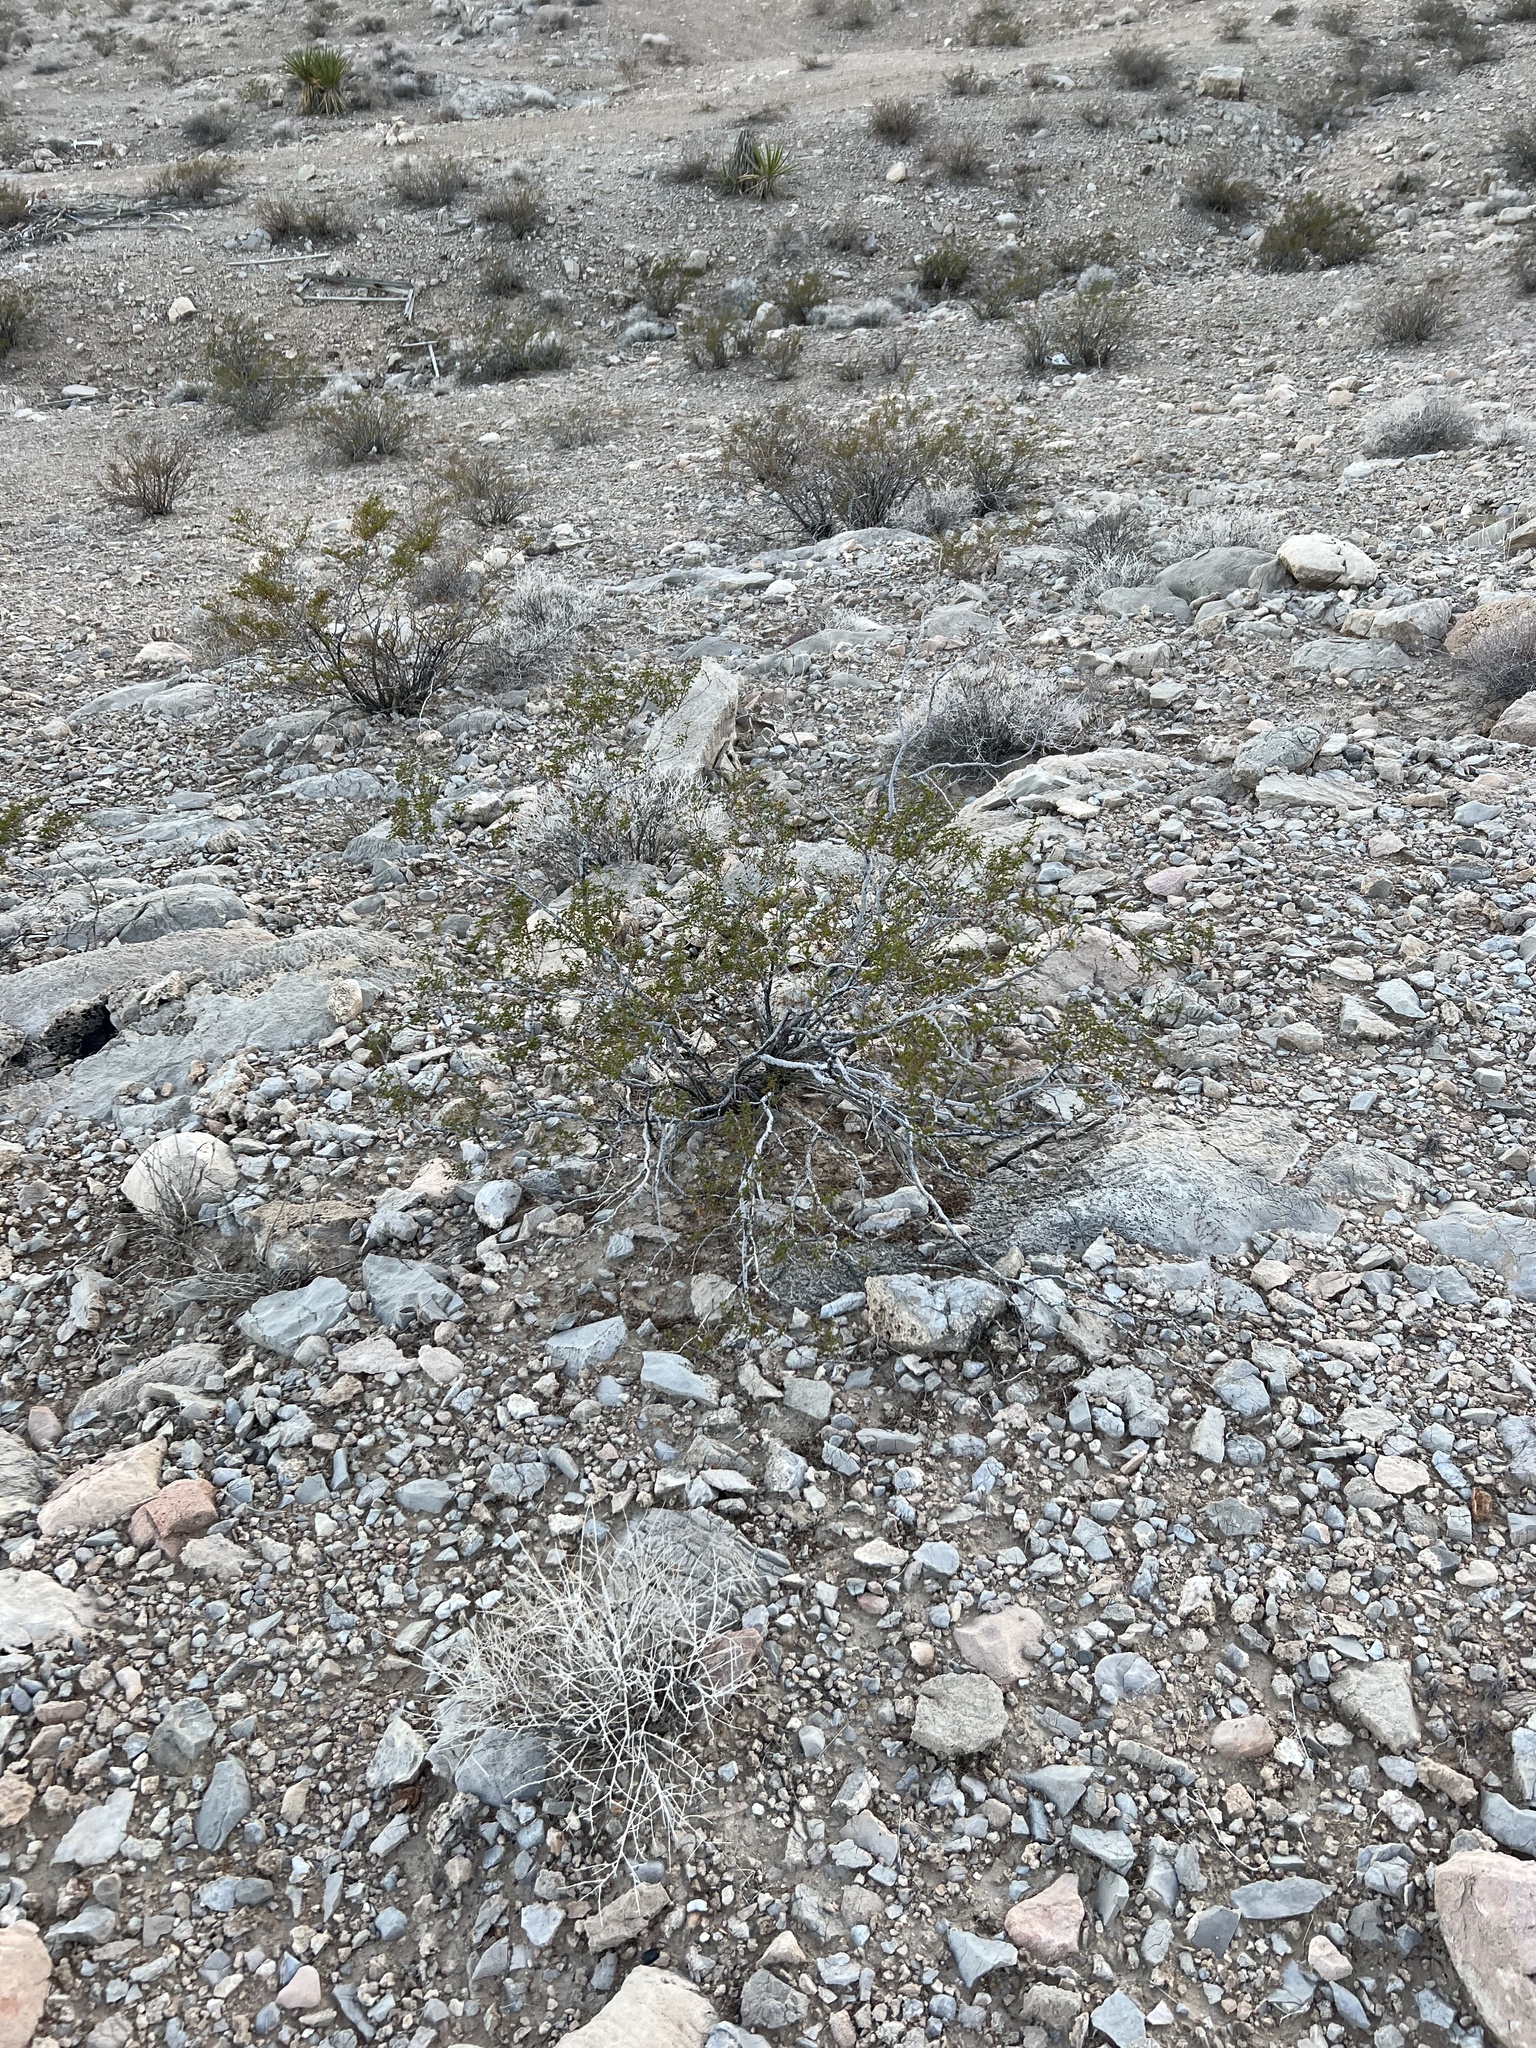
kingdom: Plantae
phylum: Tracheophyta
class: Magnoliopsida
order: Zygophyllales
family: Zygophyllaceae
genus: Larrea
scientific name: Larrea tridentata
